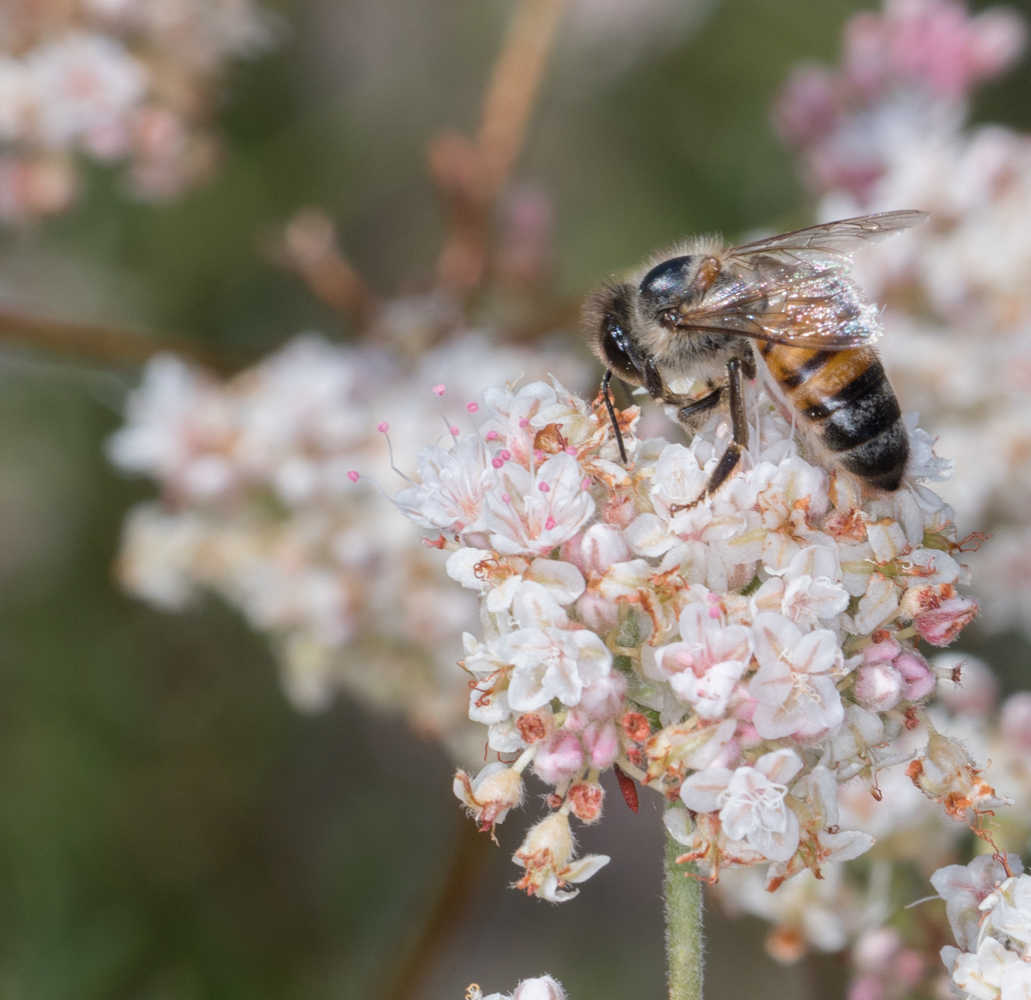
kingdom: Animalia
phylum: Arthropoda
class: Insecta
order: Hymenoptera
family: Apidae
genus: Apis
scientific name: Apis mellifera
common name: Honey bee
